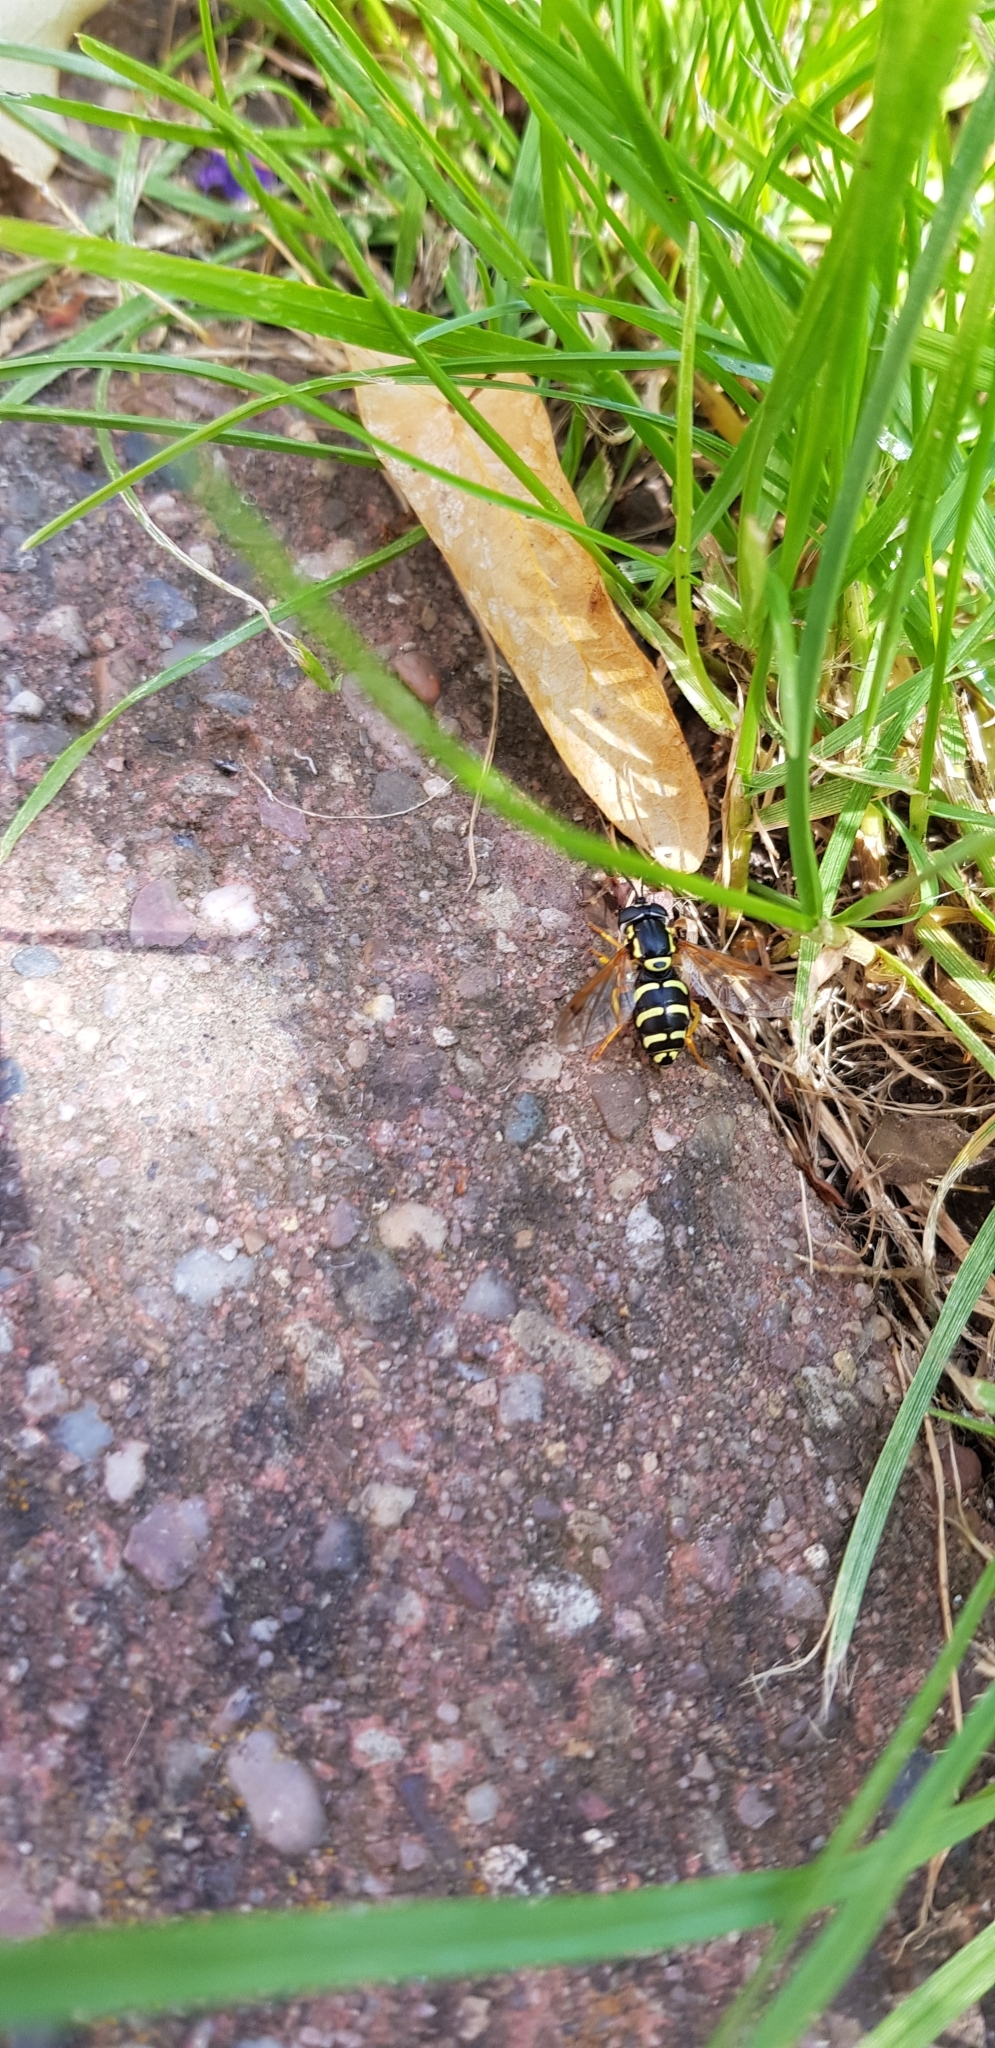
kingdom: Animalia
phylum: Arthropoda
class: Insecta
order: Diptera
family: Syrphidae
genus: Chrysotoxum
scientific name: Chrysotoxum festivum
